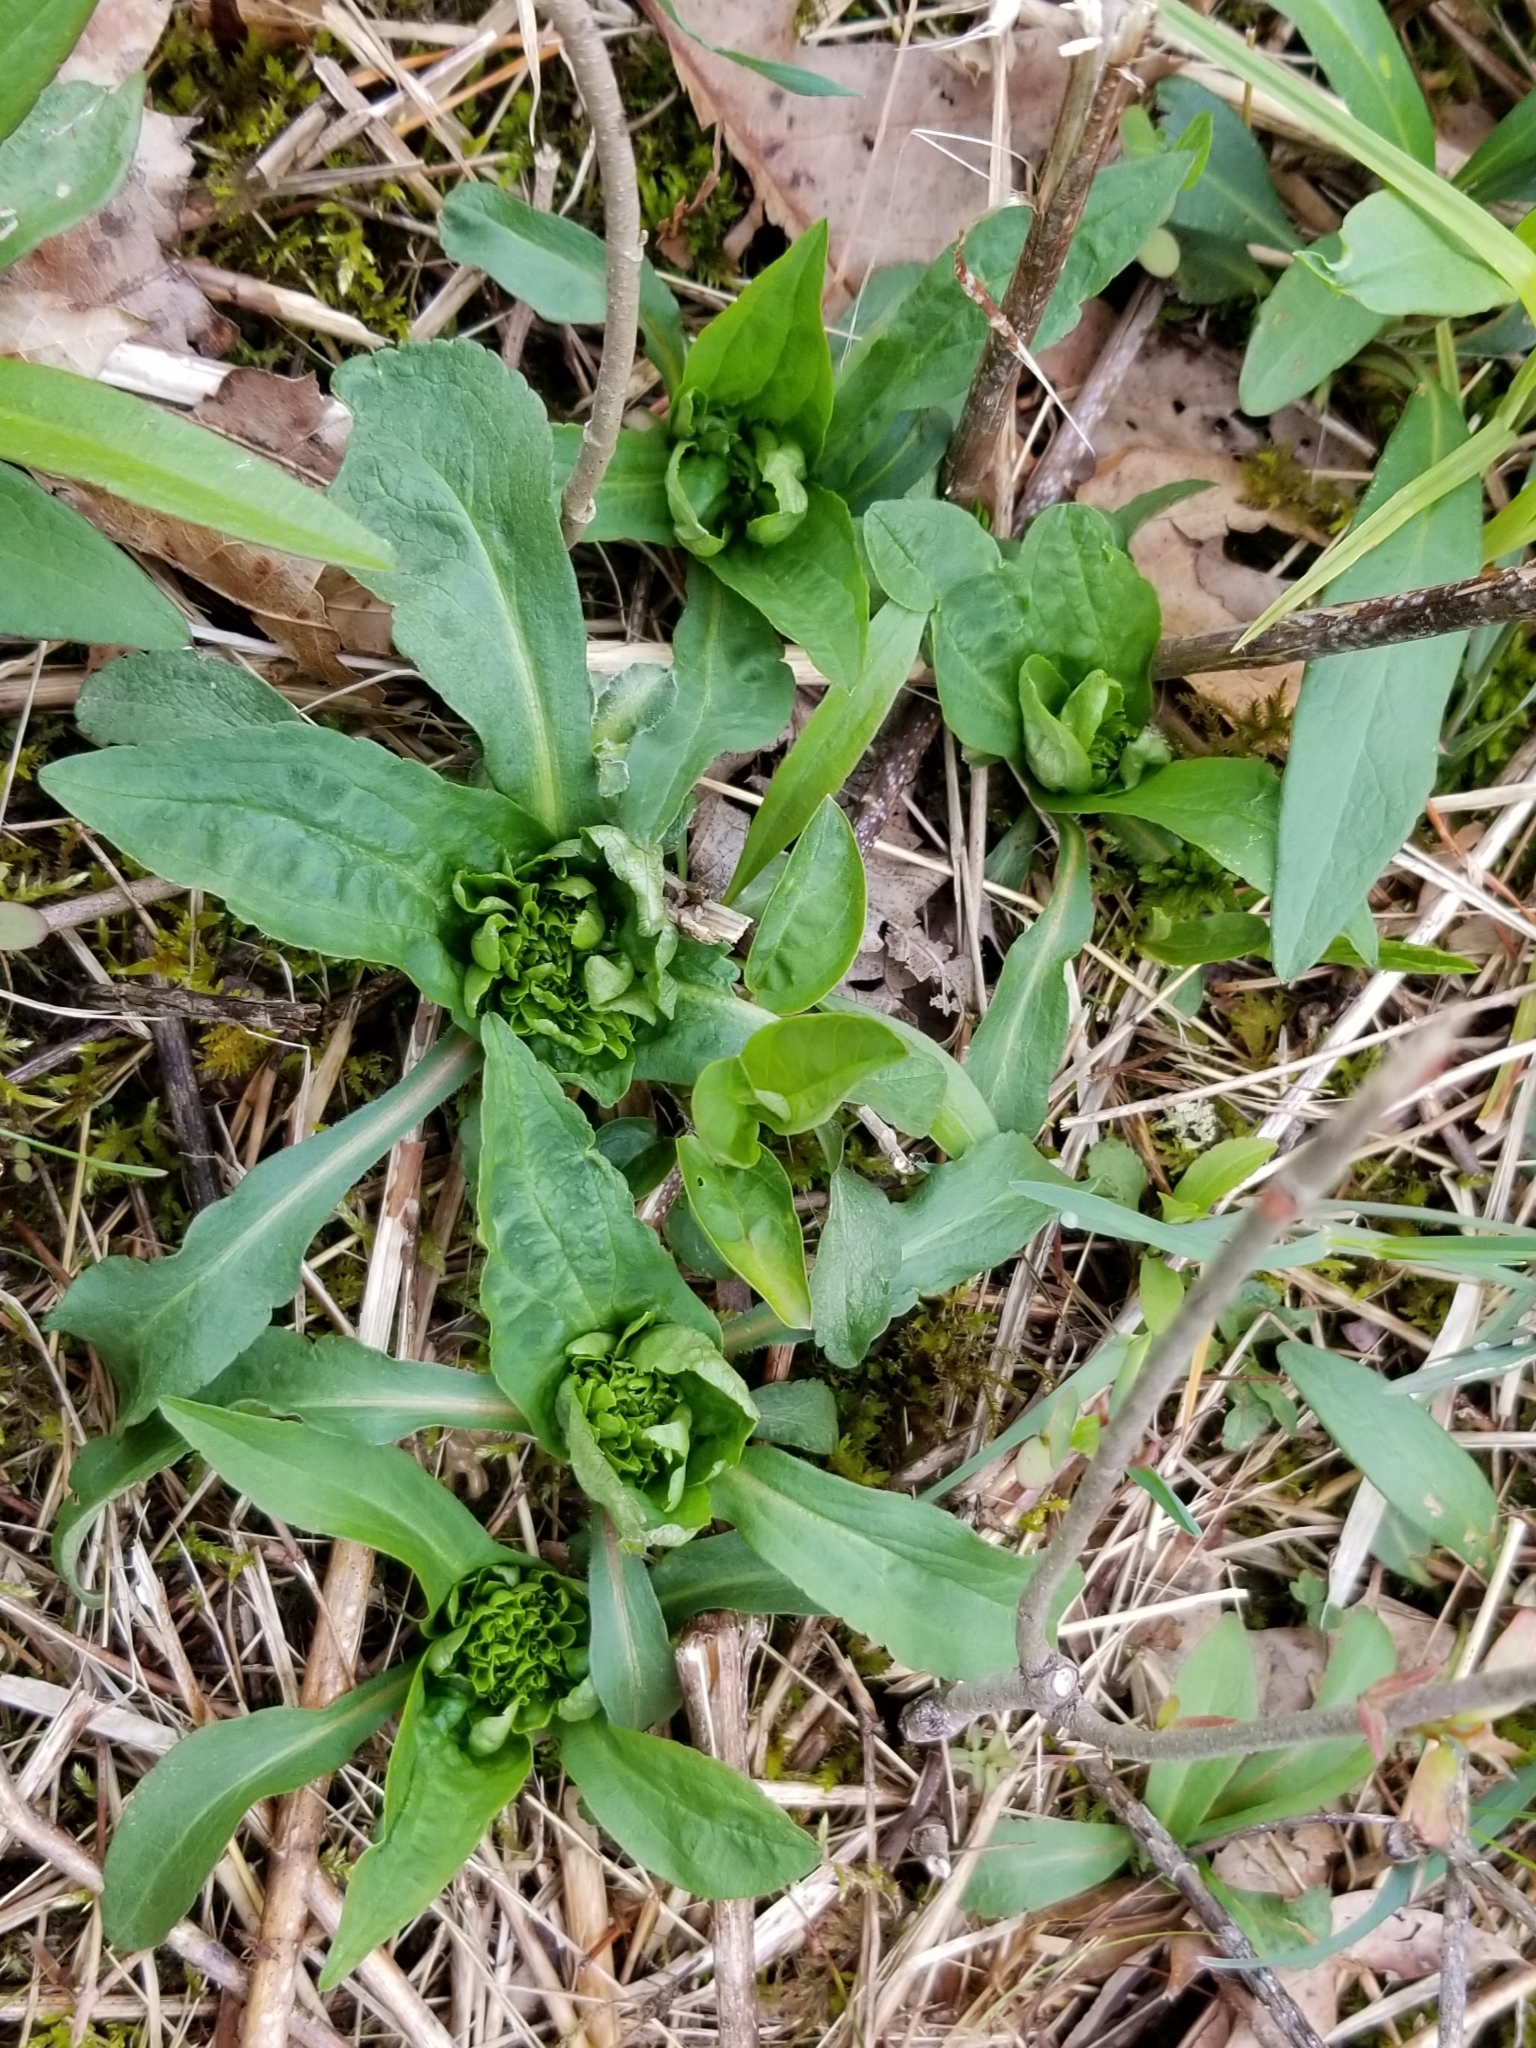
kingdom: Animalia
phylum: Arthropoda
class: Insecta
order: Diptera
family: Cecidomyiidae
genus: Rhopalomyia
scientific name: Rhopalomyia capitata
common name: Giant goldenrod bunch gall midge
